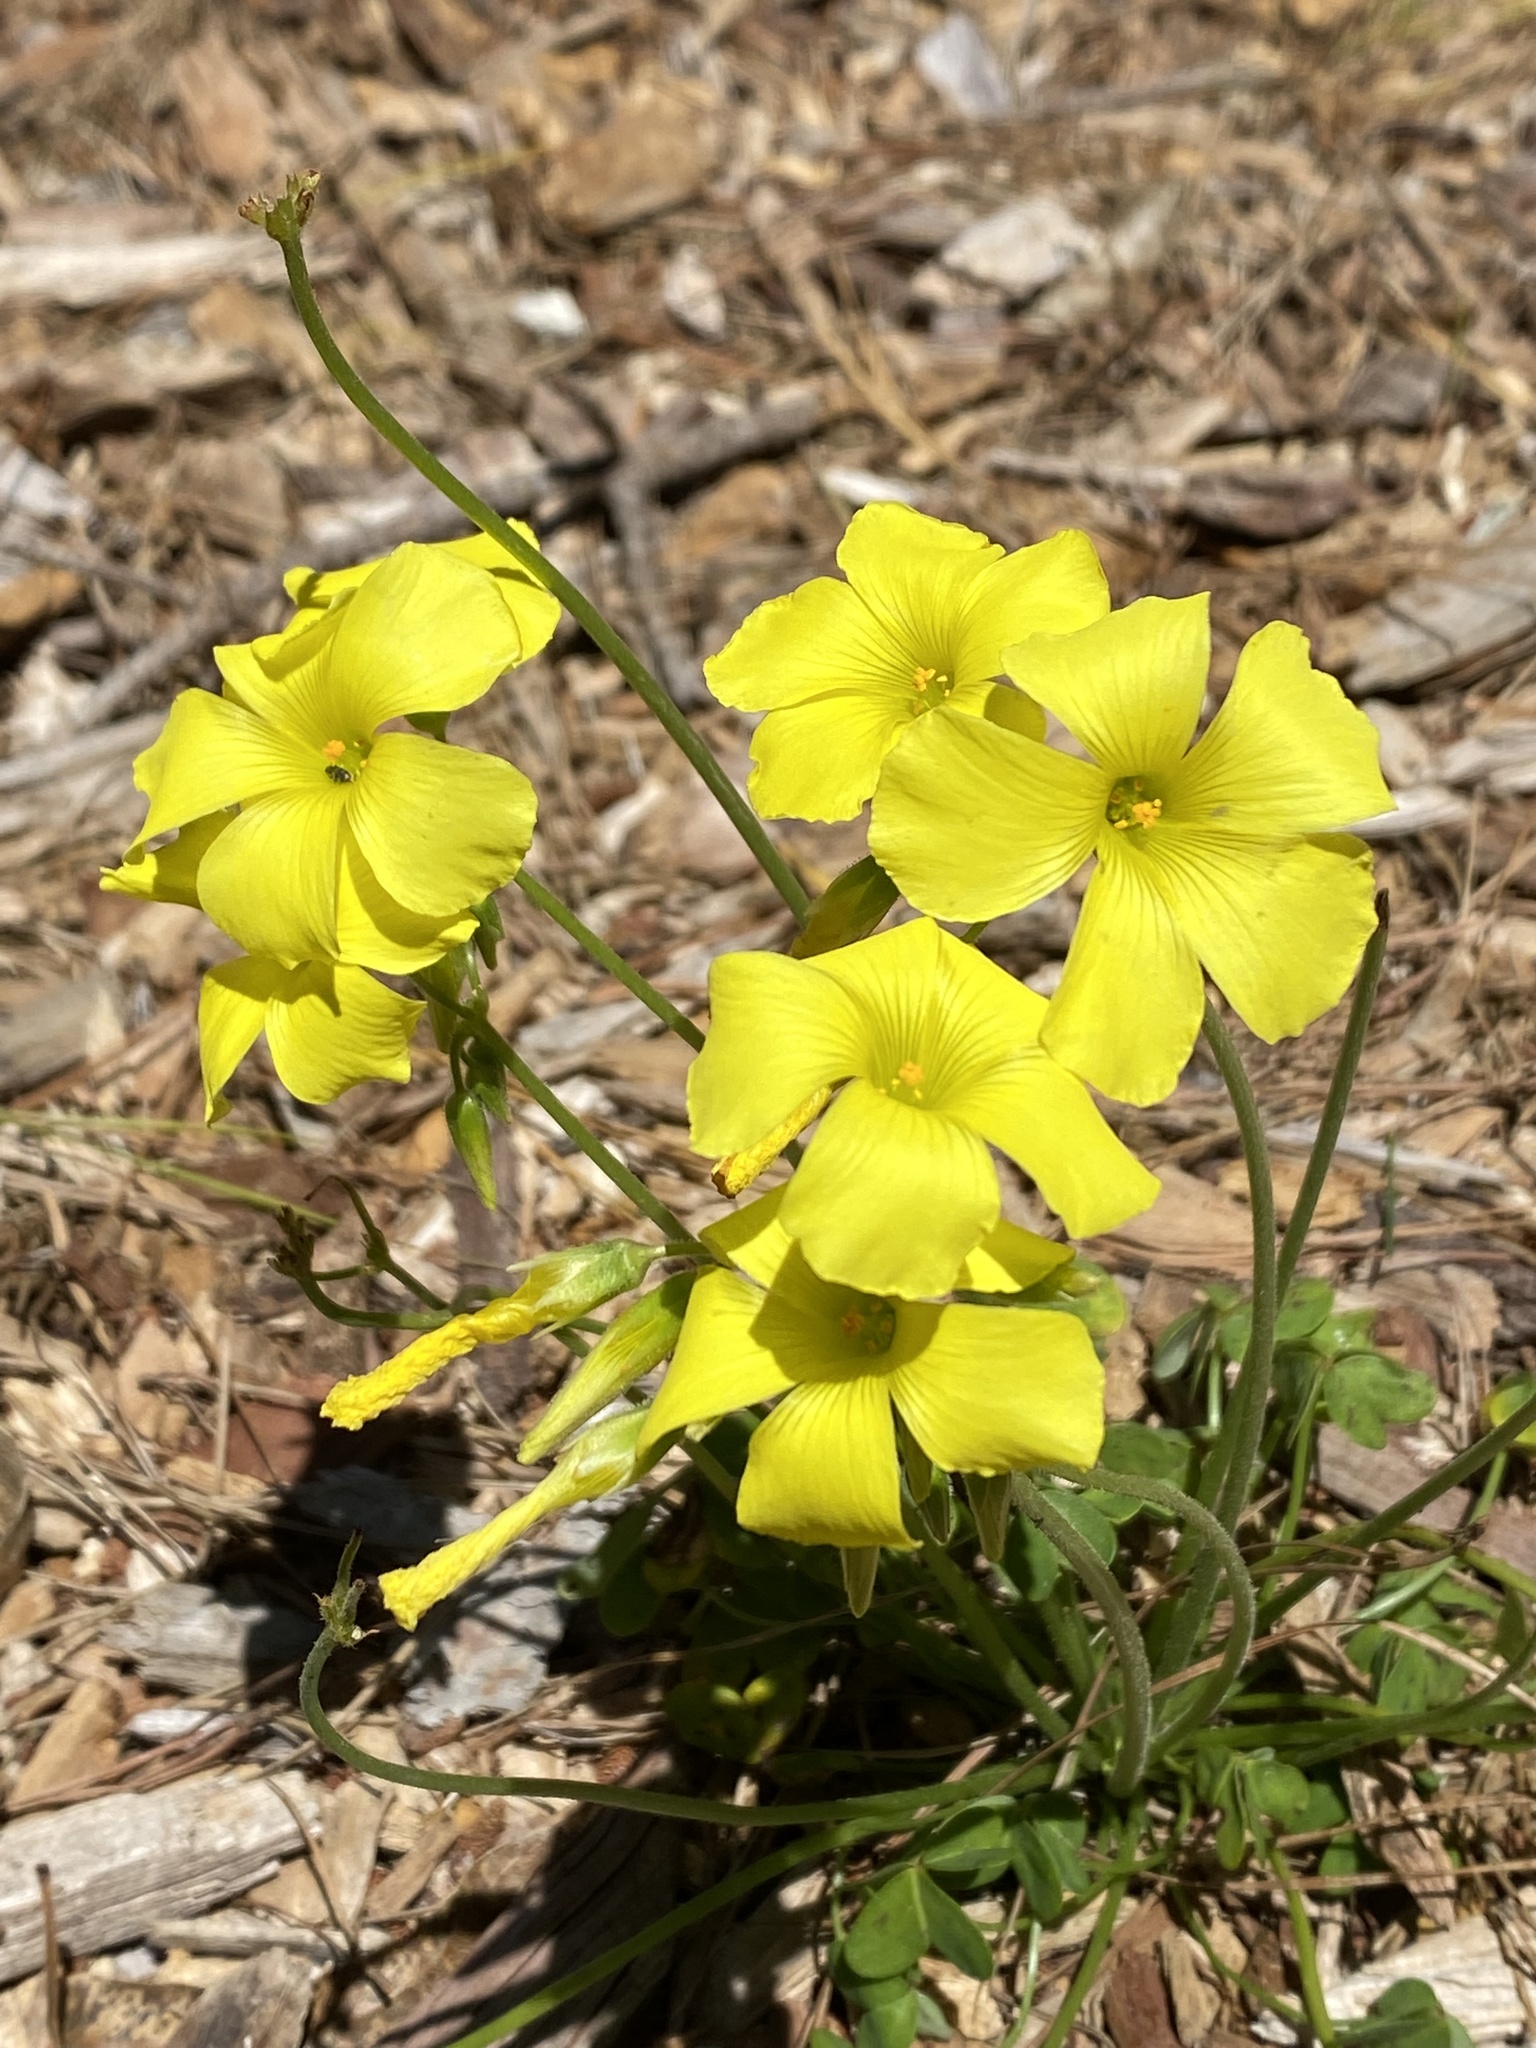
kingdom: Plantae
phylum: Tracheophyta
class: Magnoliopsida
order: Oxalidales
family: Oxalidaceae
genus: Oxalis
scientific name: Oxalis pes-caprae
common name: Bermuda-buttercup
